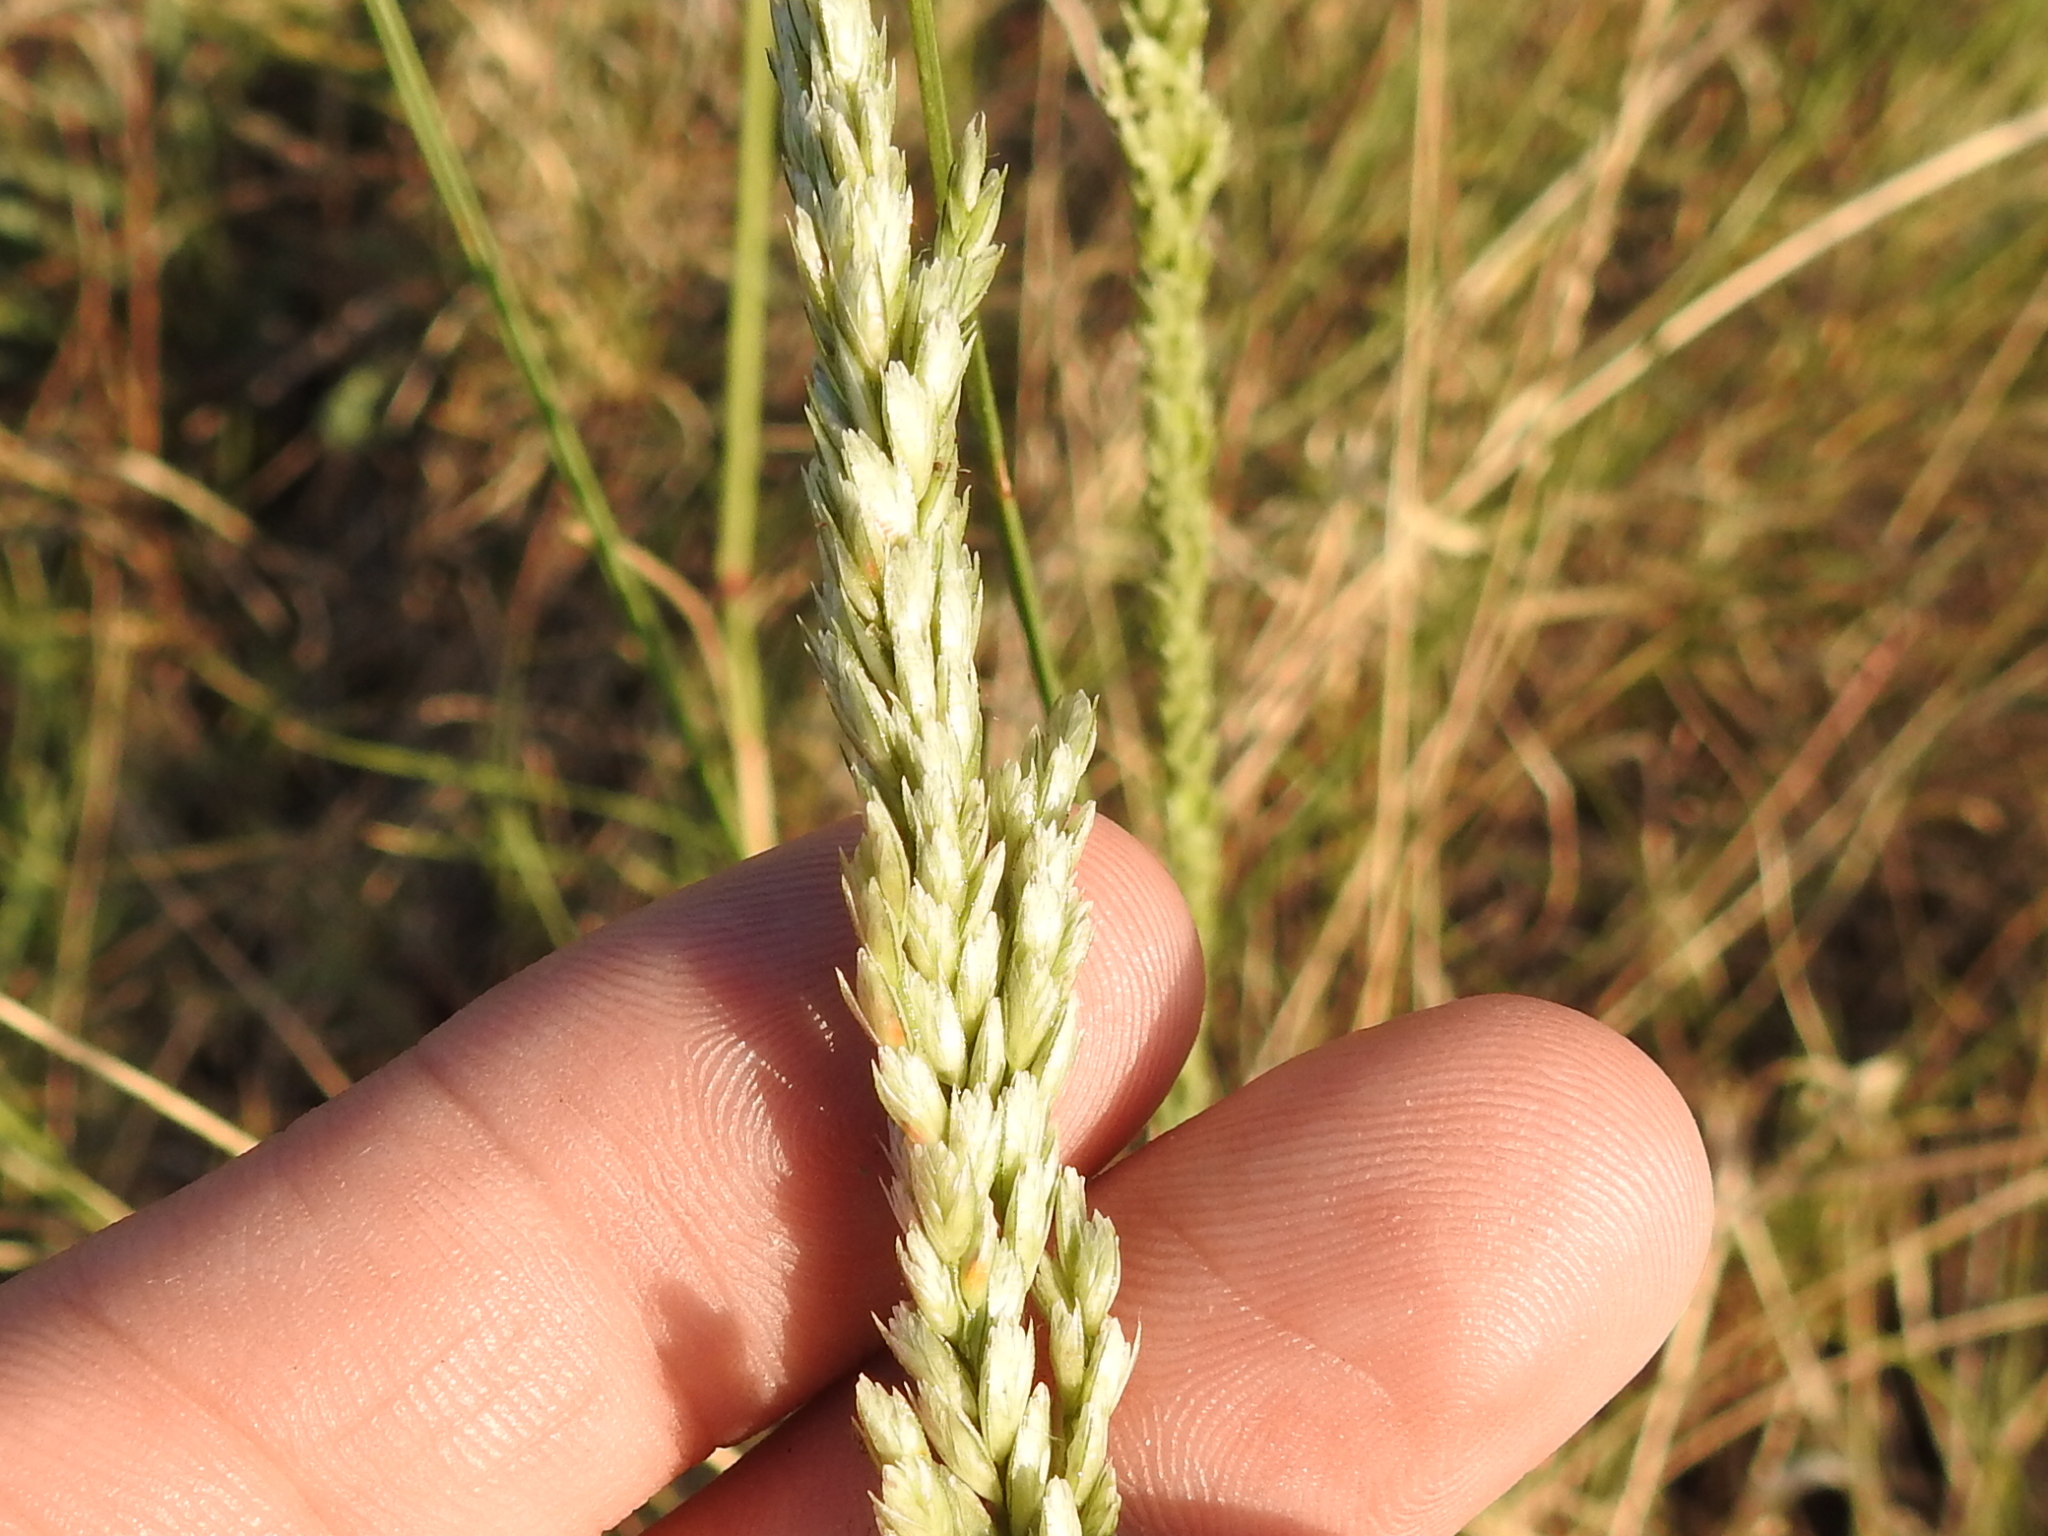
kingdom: Plantae
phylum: Tracheophyta
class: Liliopsida
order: Poales
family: Poaceae
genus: Tridens
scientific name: Tridens strictus
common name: Long-spike tridens
